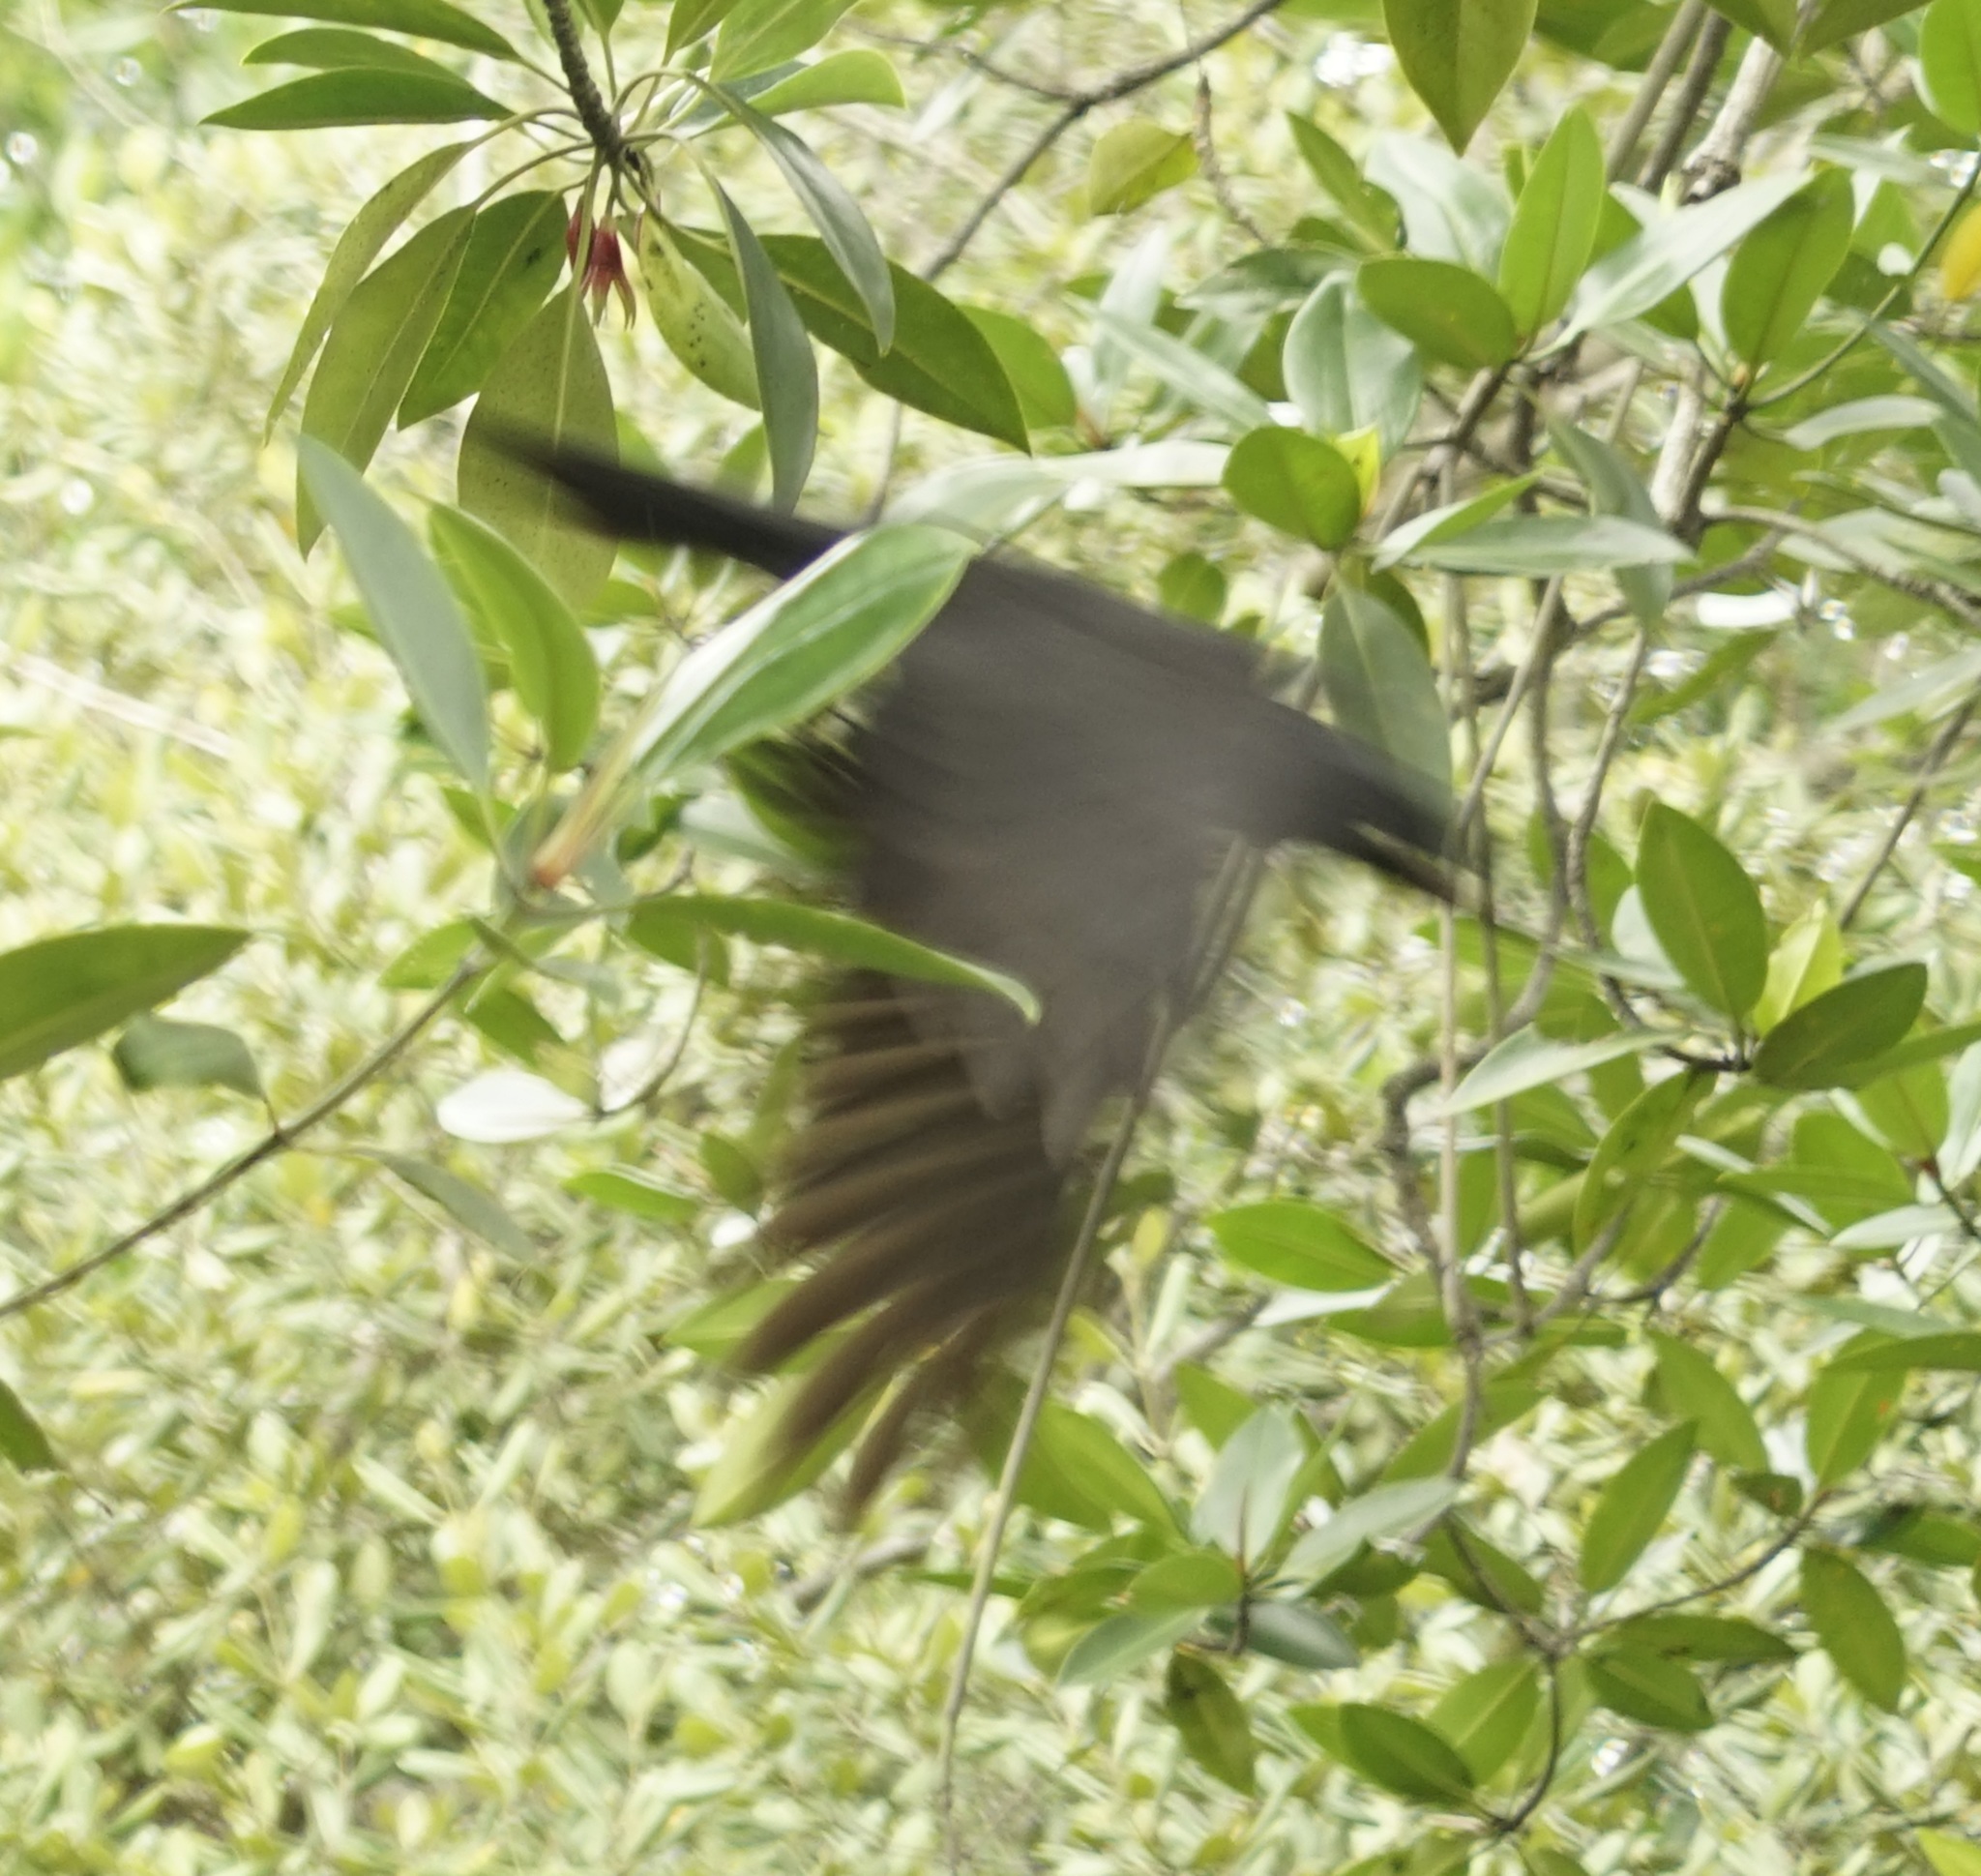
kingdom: Animalia
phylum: Chordata
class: Aves
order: Passeriformes
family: Corvidae
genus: Corvus
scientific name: Corvus splendens
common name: House crow
